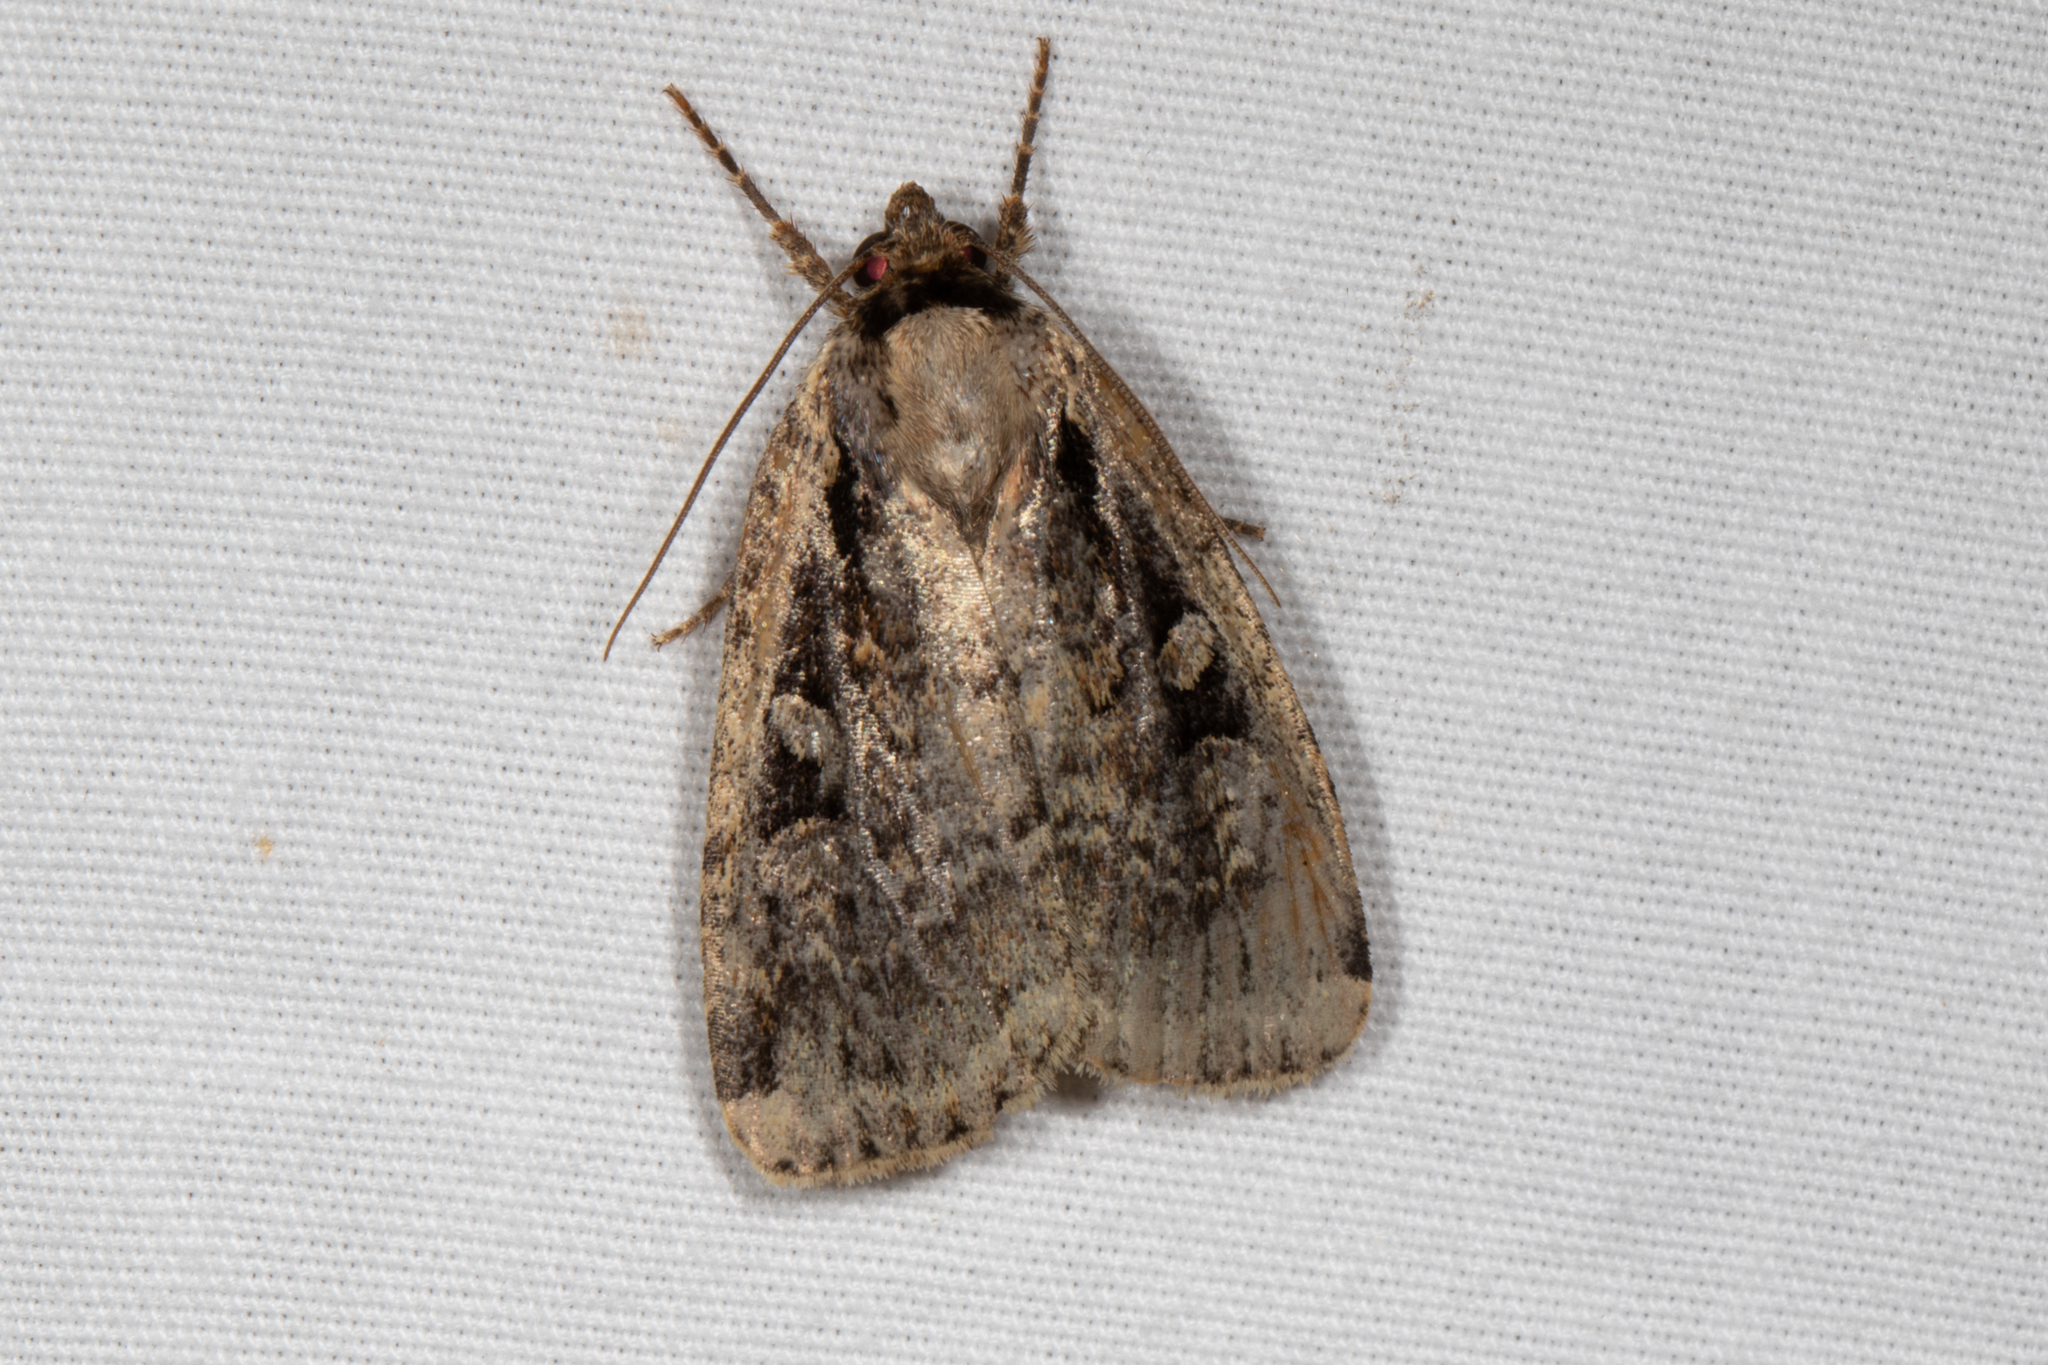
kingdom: Animalia
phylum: Arthropoda
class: Insecta
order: Lepidoptera
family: Noctuidae
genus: Eueretagrotis
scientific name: Eueretagrotis perattentus
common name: Two-spot dart moth
